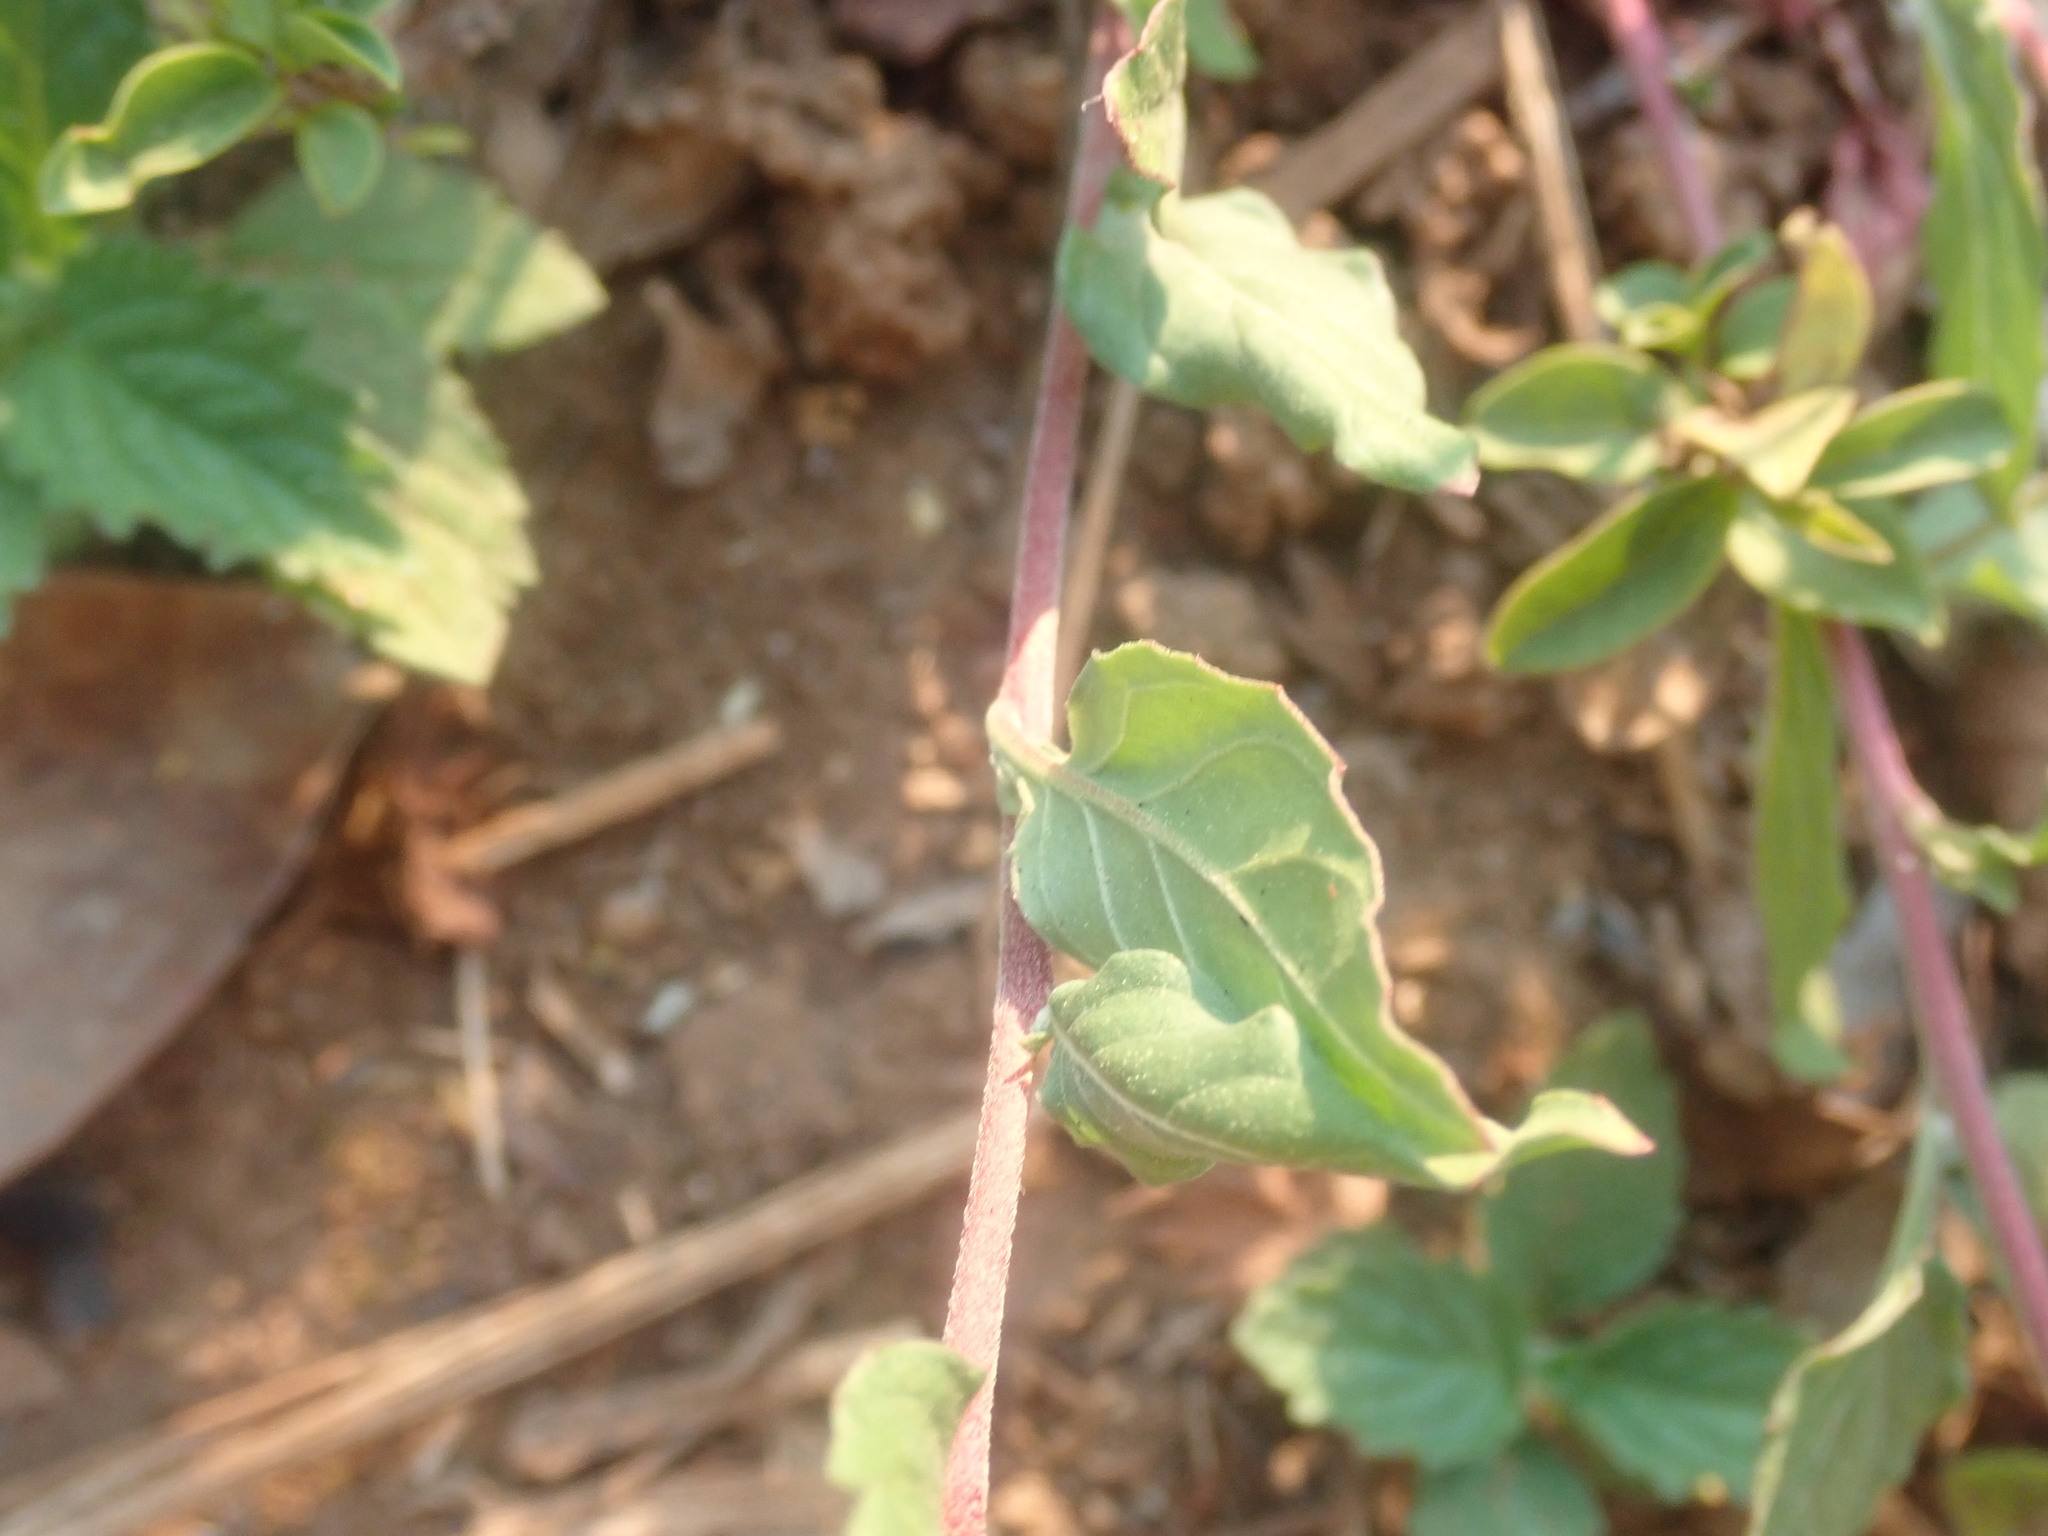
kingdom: Plantae
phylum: Tracheophyta
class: Magnoliopsida
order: Myrtales
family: Onagraceae
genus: Oenothera
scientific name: Oenothera rosea
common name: Rosy evening-primrose
